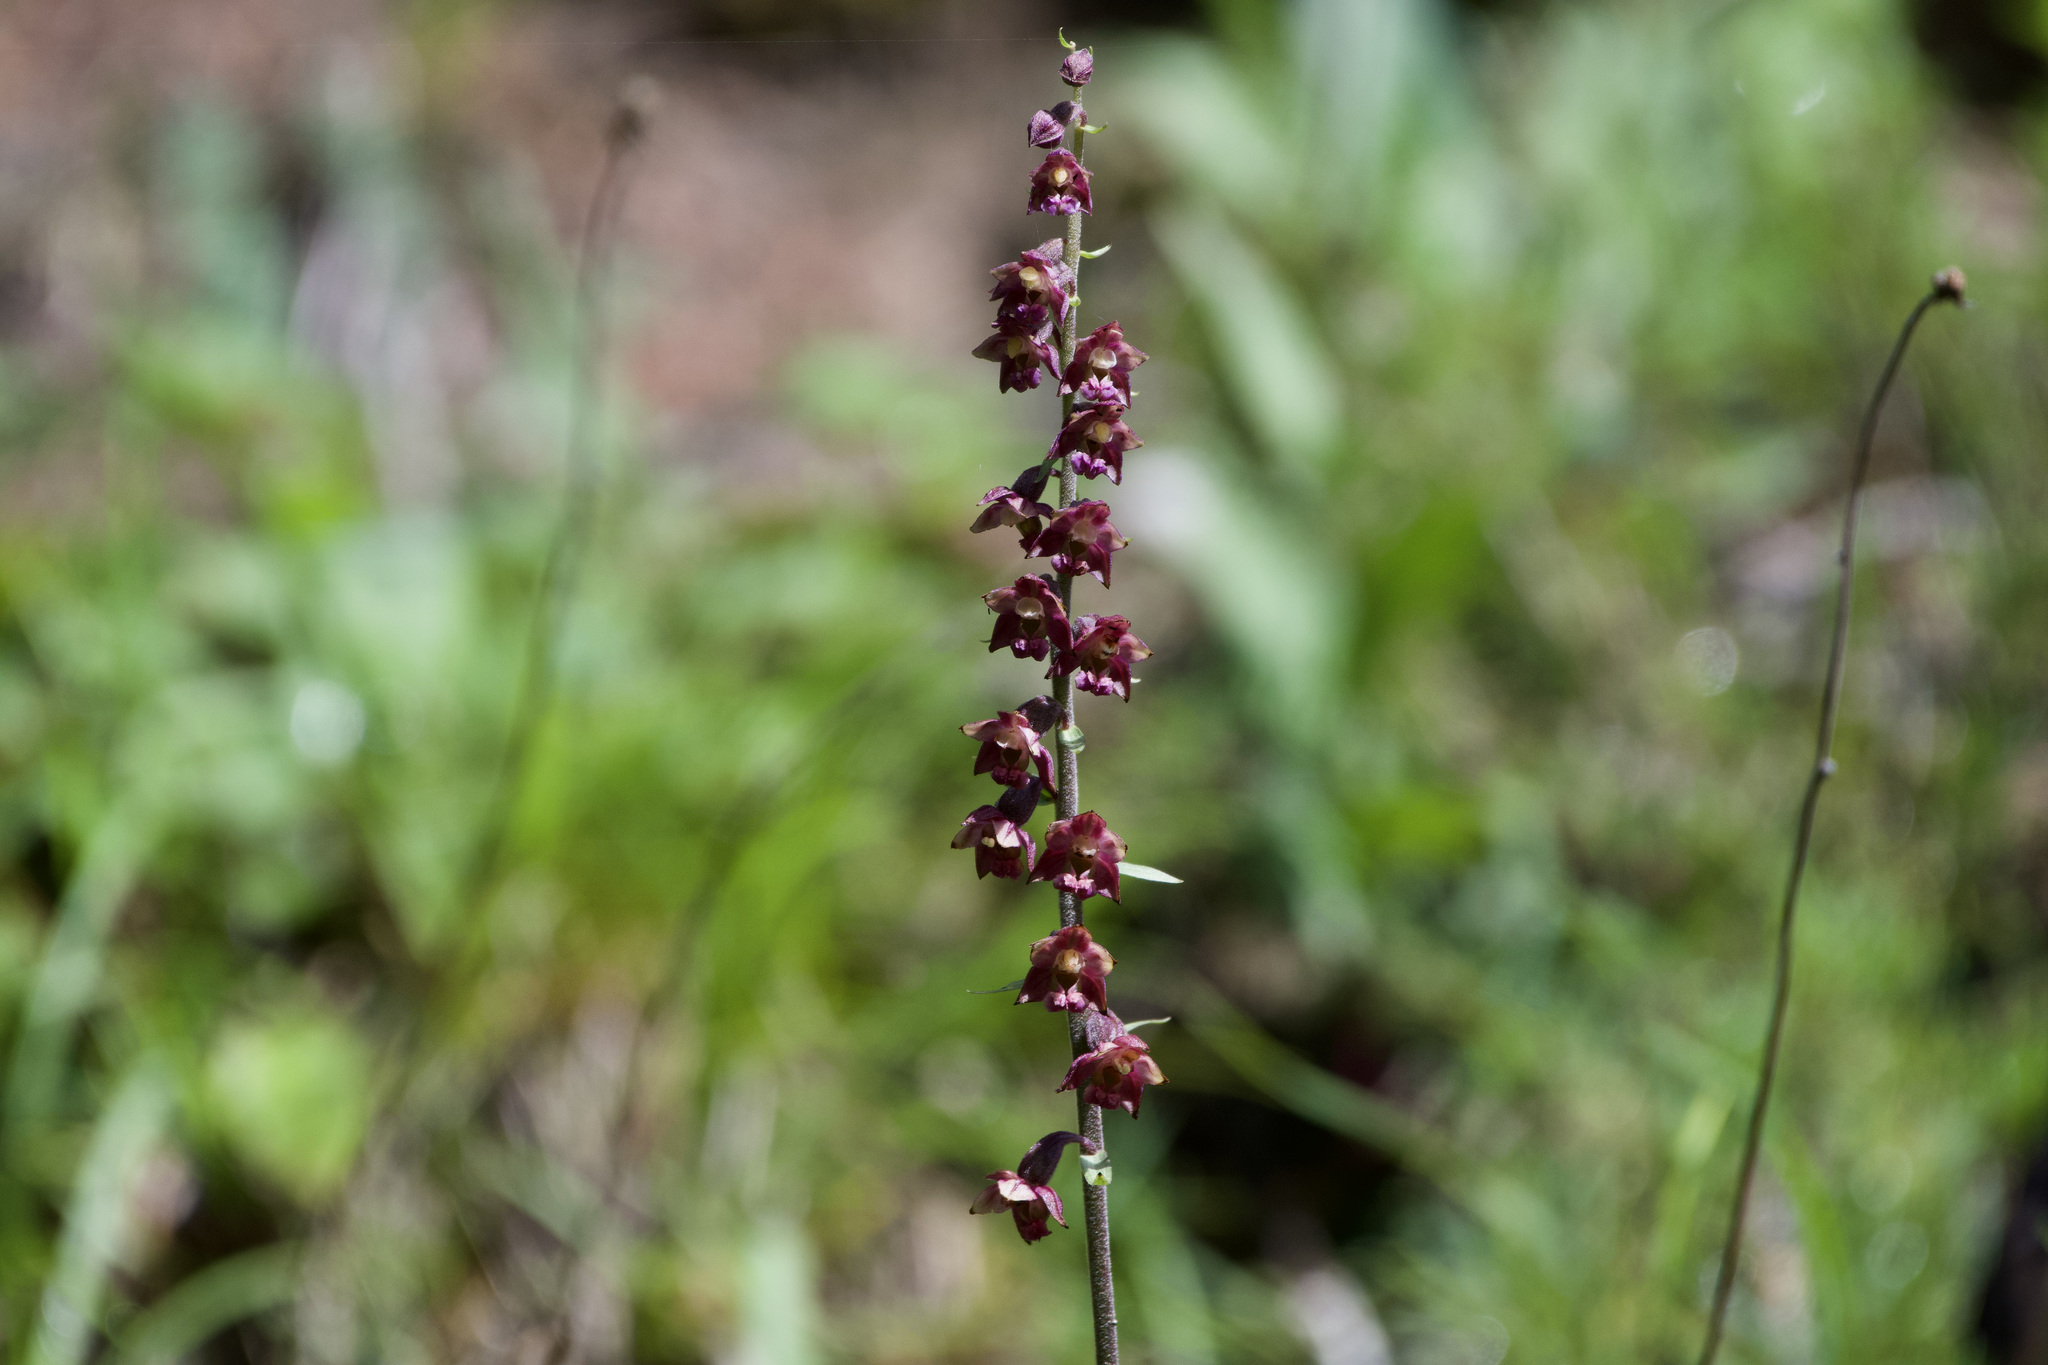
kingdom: Plantae
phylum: Tracheophyta
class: Liliopsida
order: Asparagales
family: Orchidaceae
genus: Epipactis
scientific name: Epipactis atrorubens
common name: Dark-red helleborine
